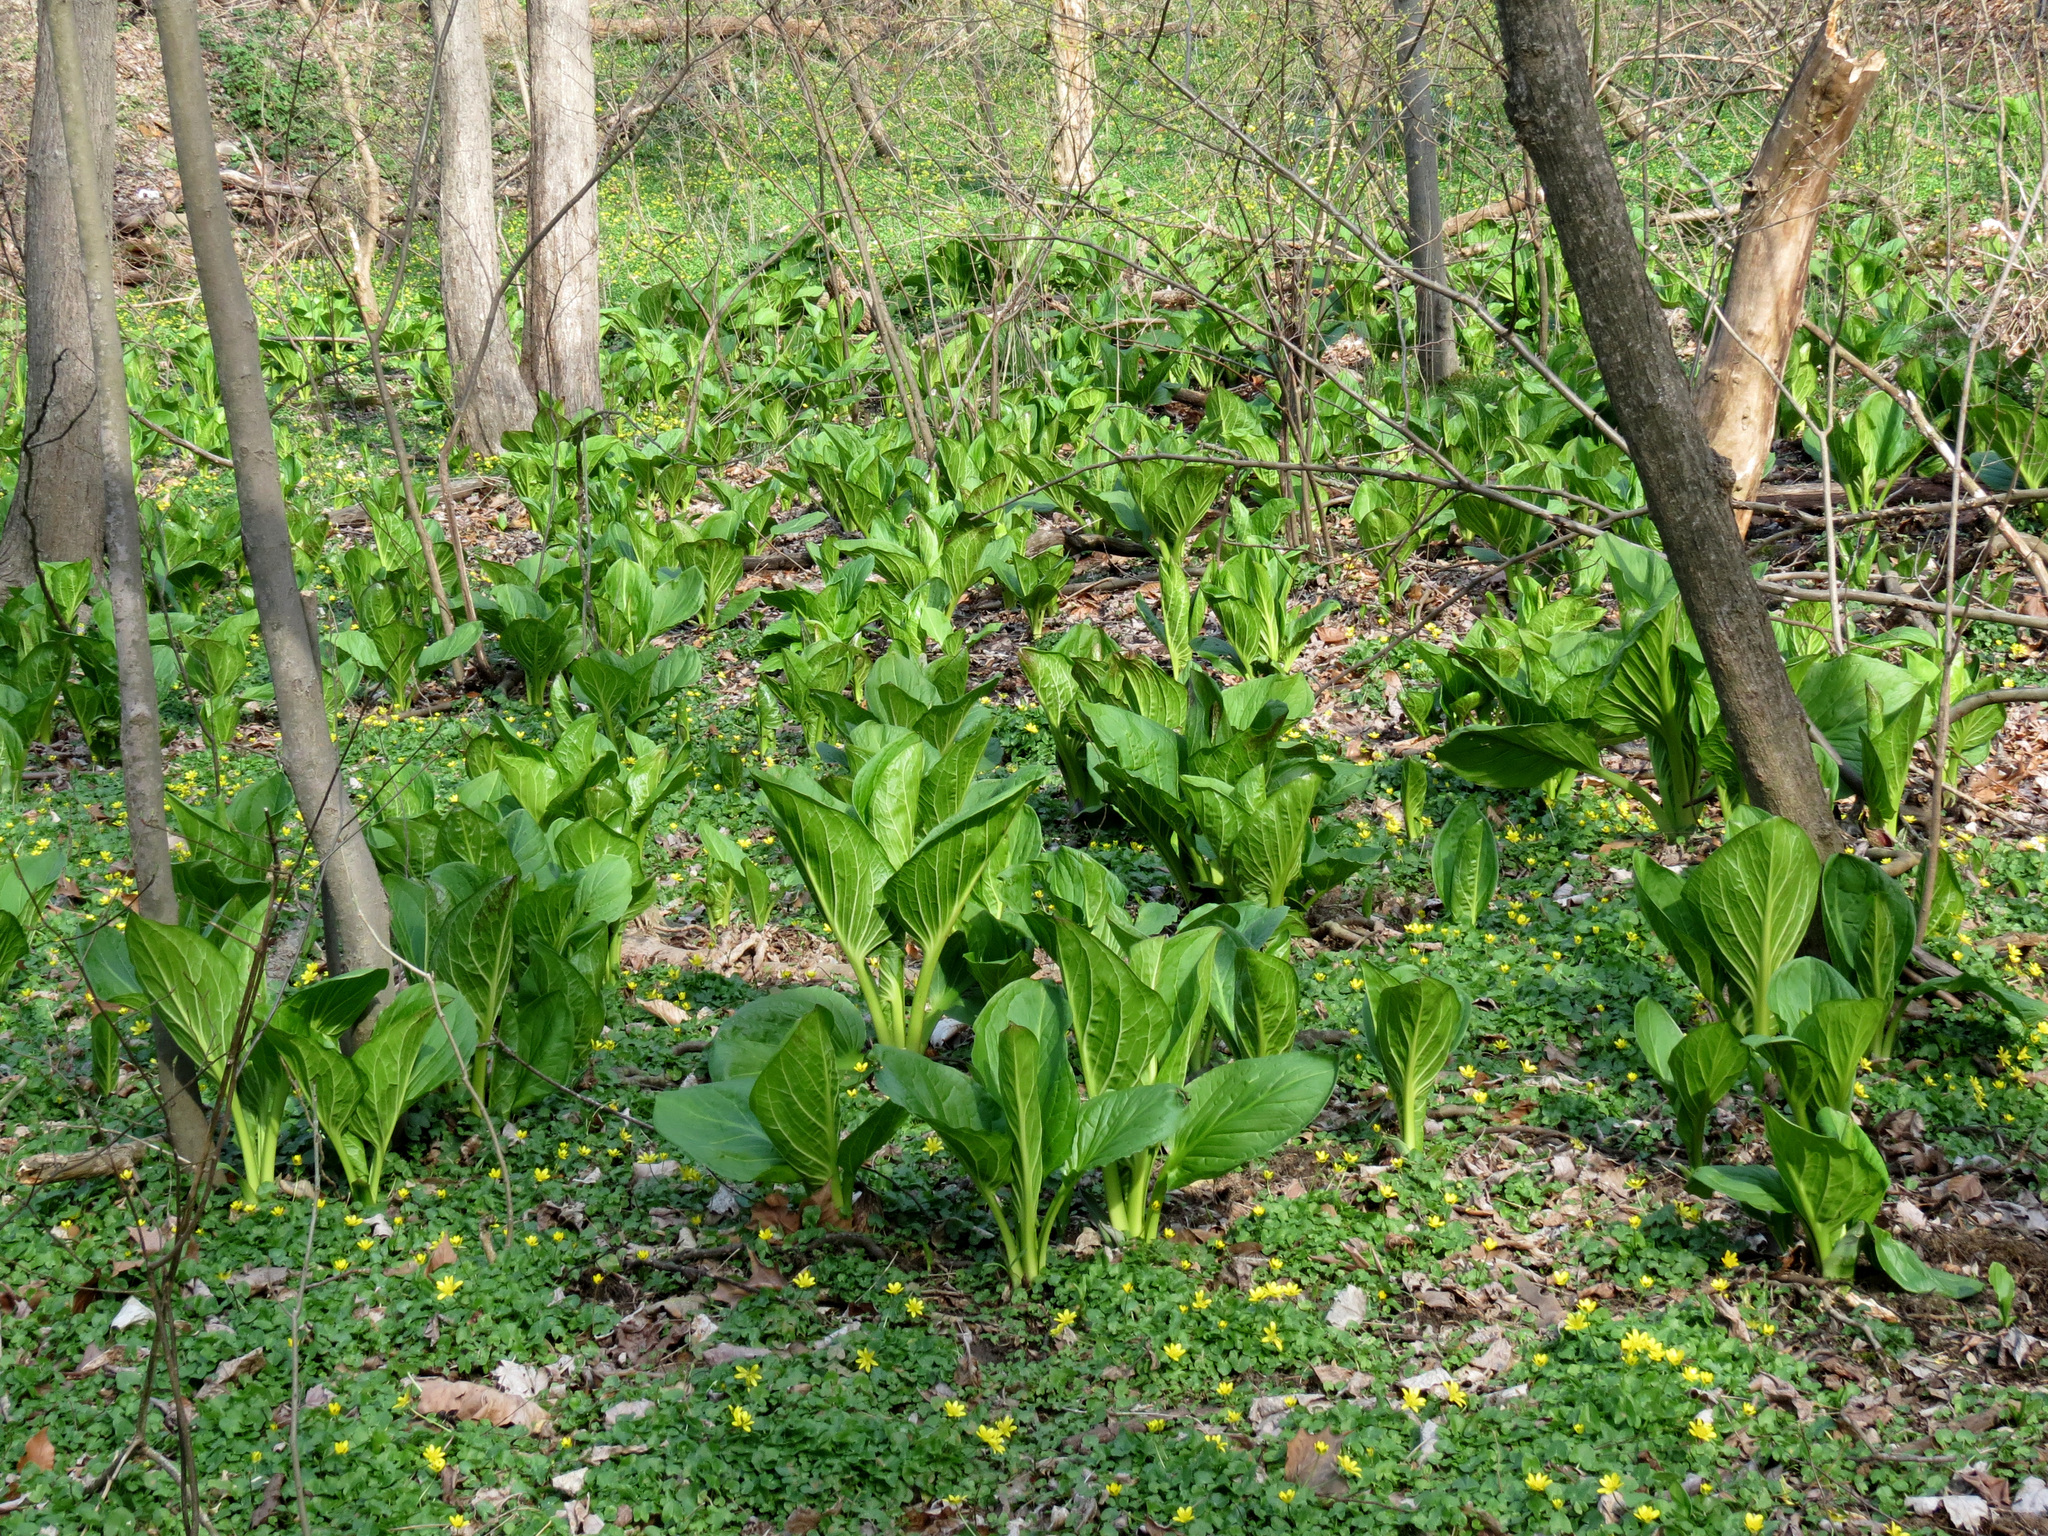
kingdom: Plantae
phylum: Tracheophyta
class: Liliopsida
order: Alismatales
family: Araceae
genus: Symplocarpus
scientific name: Symplocarpus foetidus
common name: Eastern skunk cabbage
